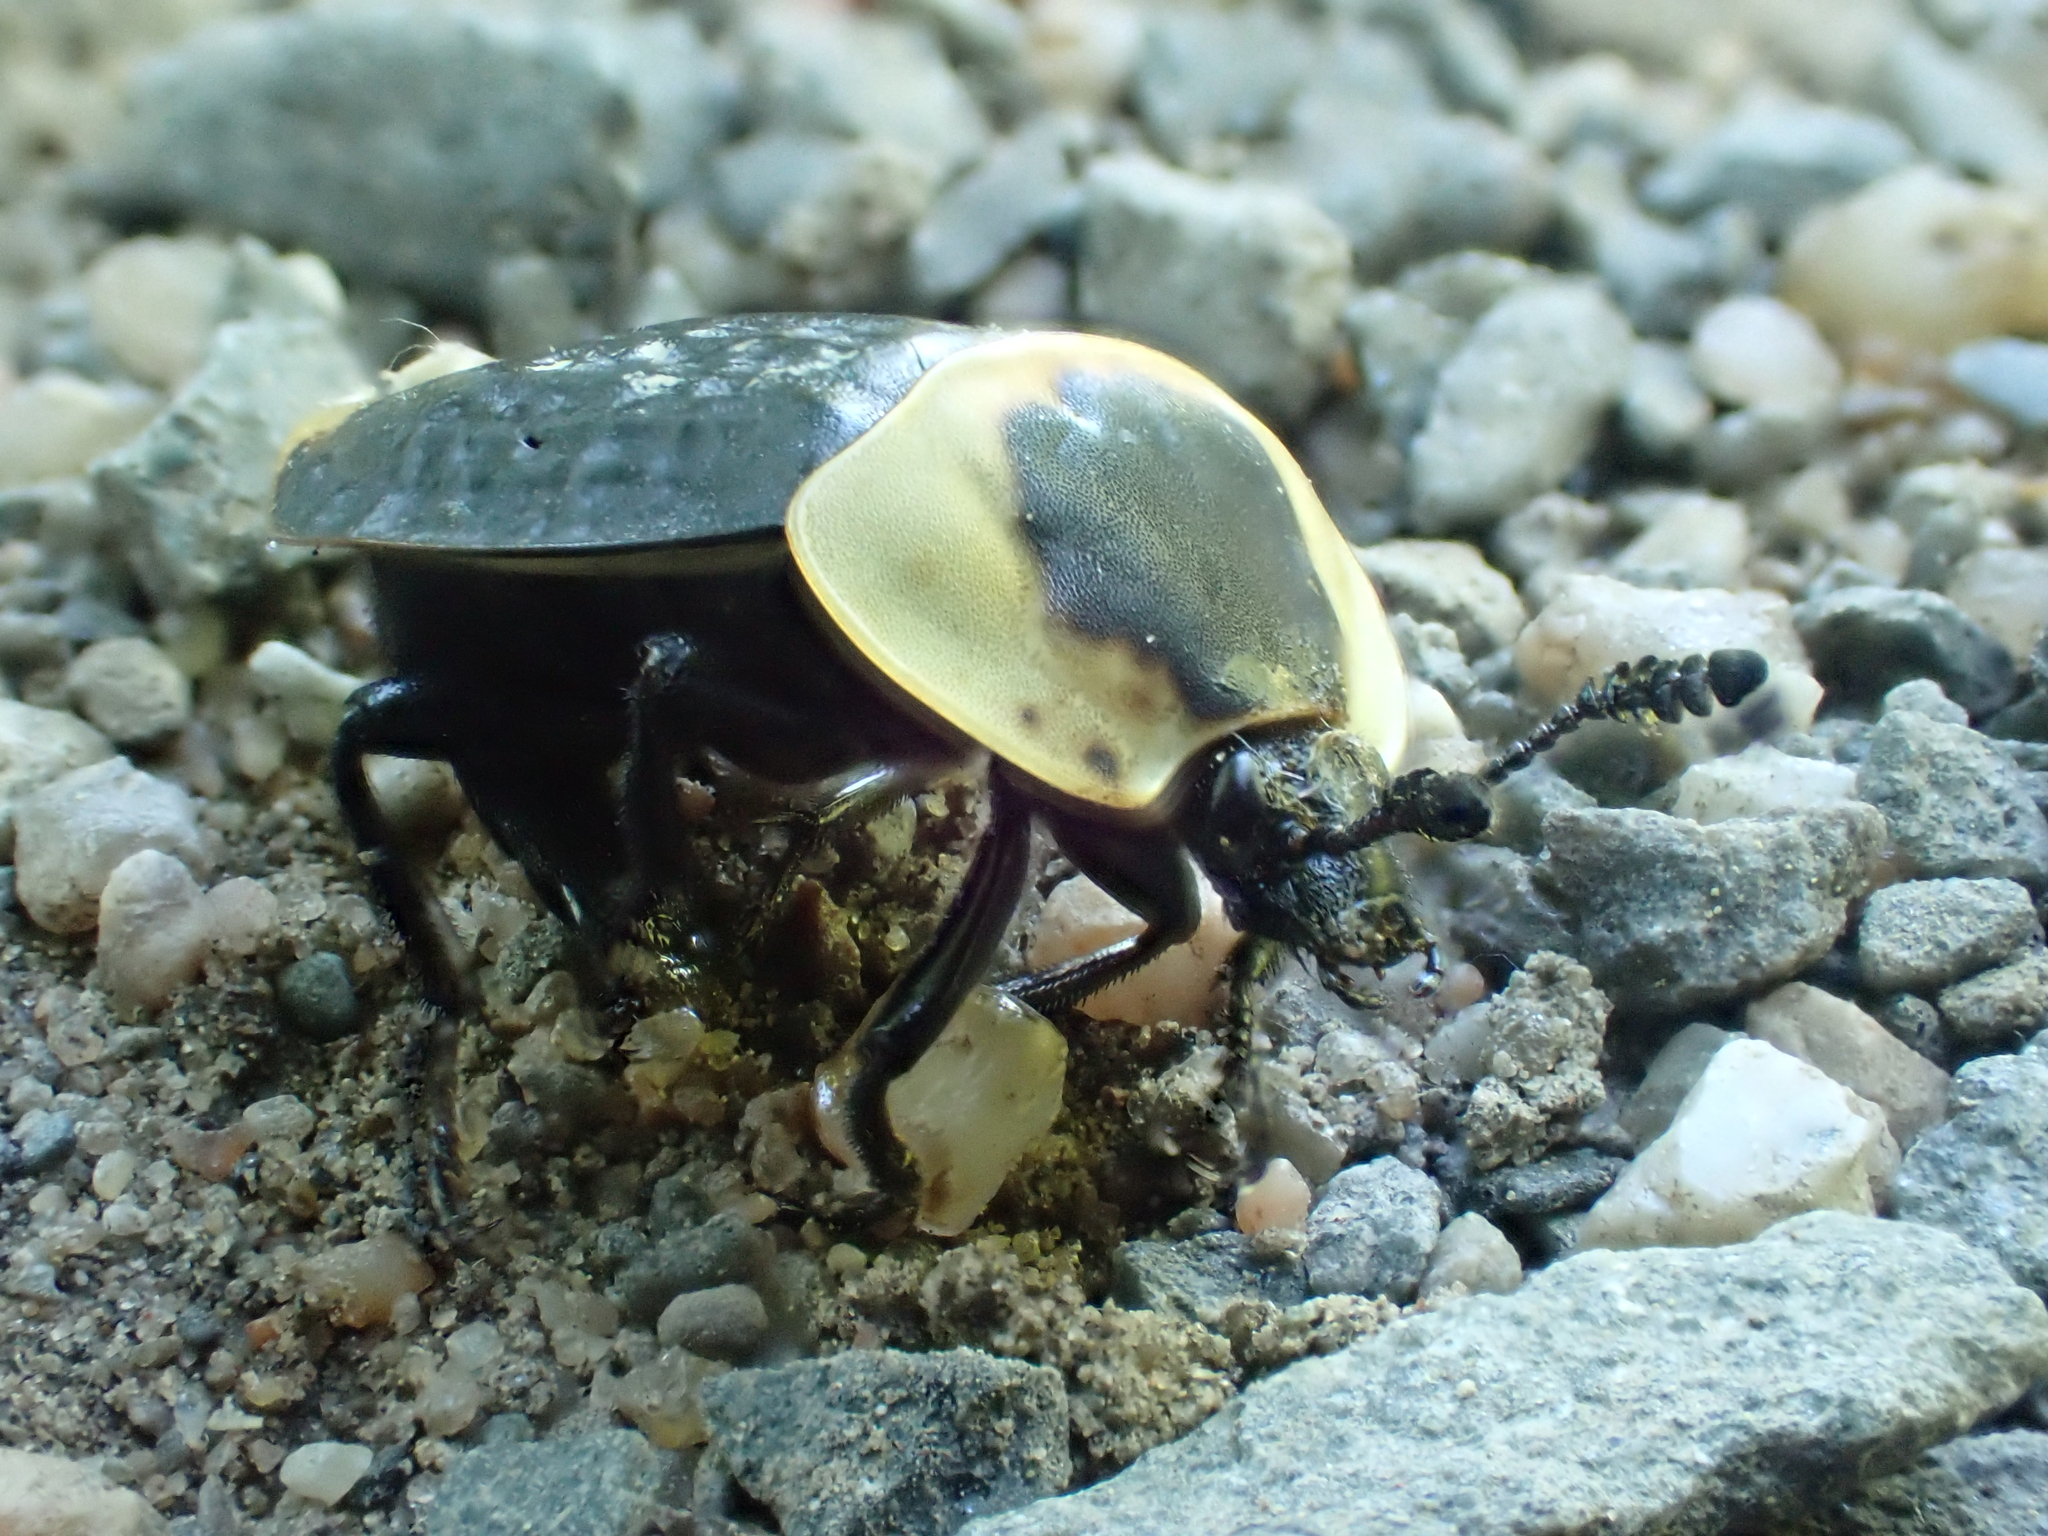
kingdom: Animalia
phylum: Arthropoda
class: Insecta
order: Coleoptera
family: Staphylinidae
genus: Necrophila
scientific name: Necrophila americana
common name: American carrion beetle
